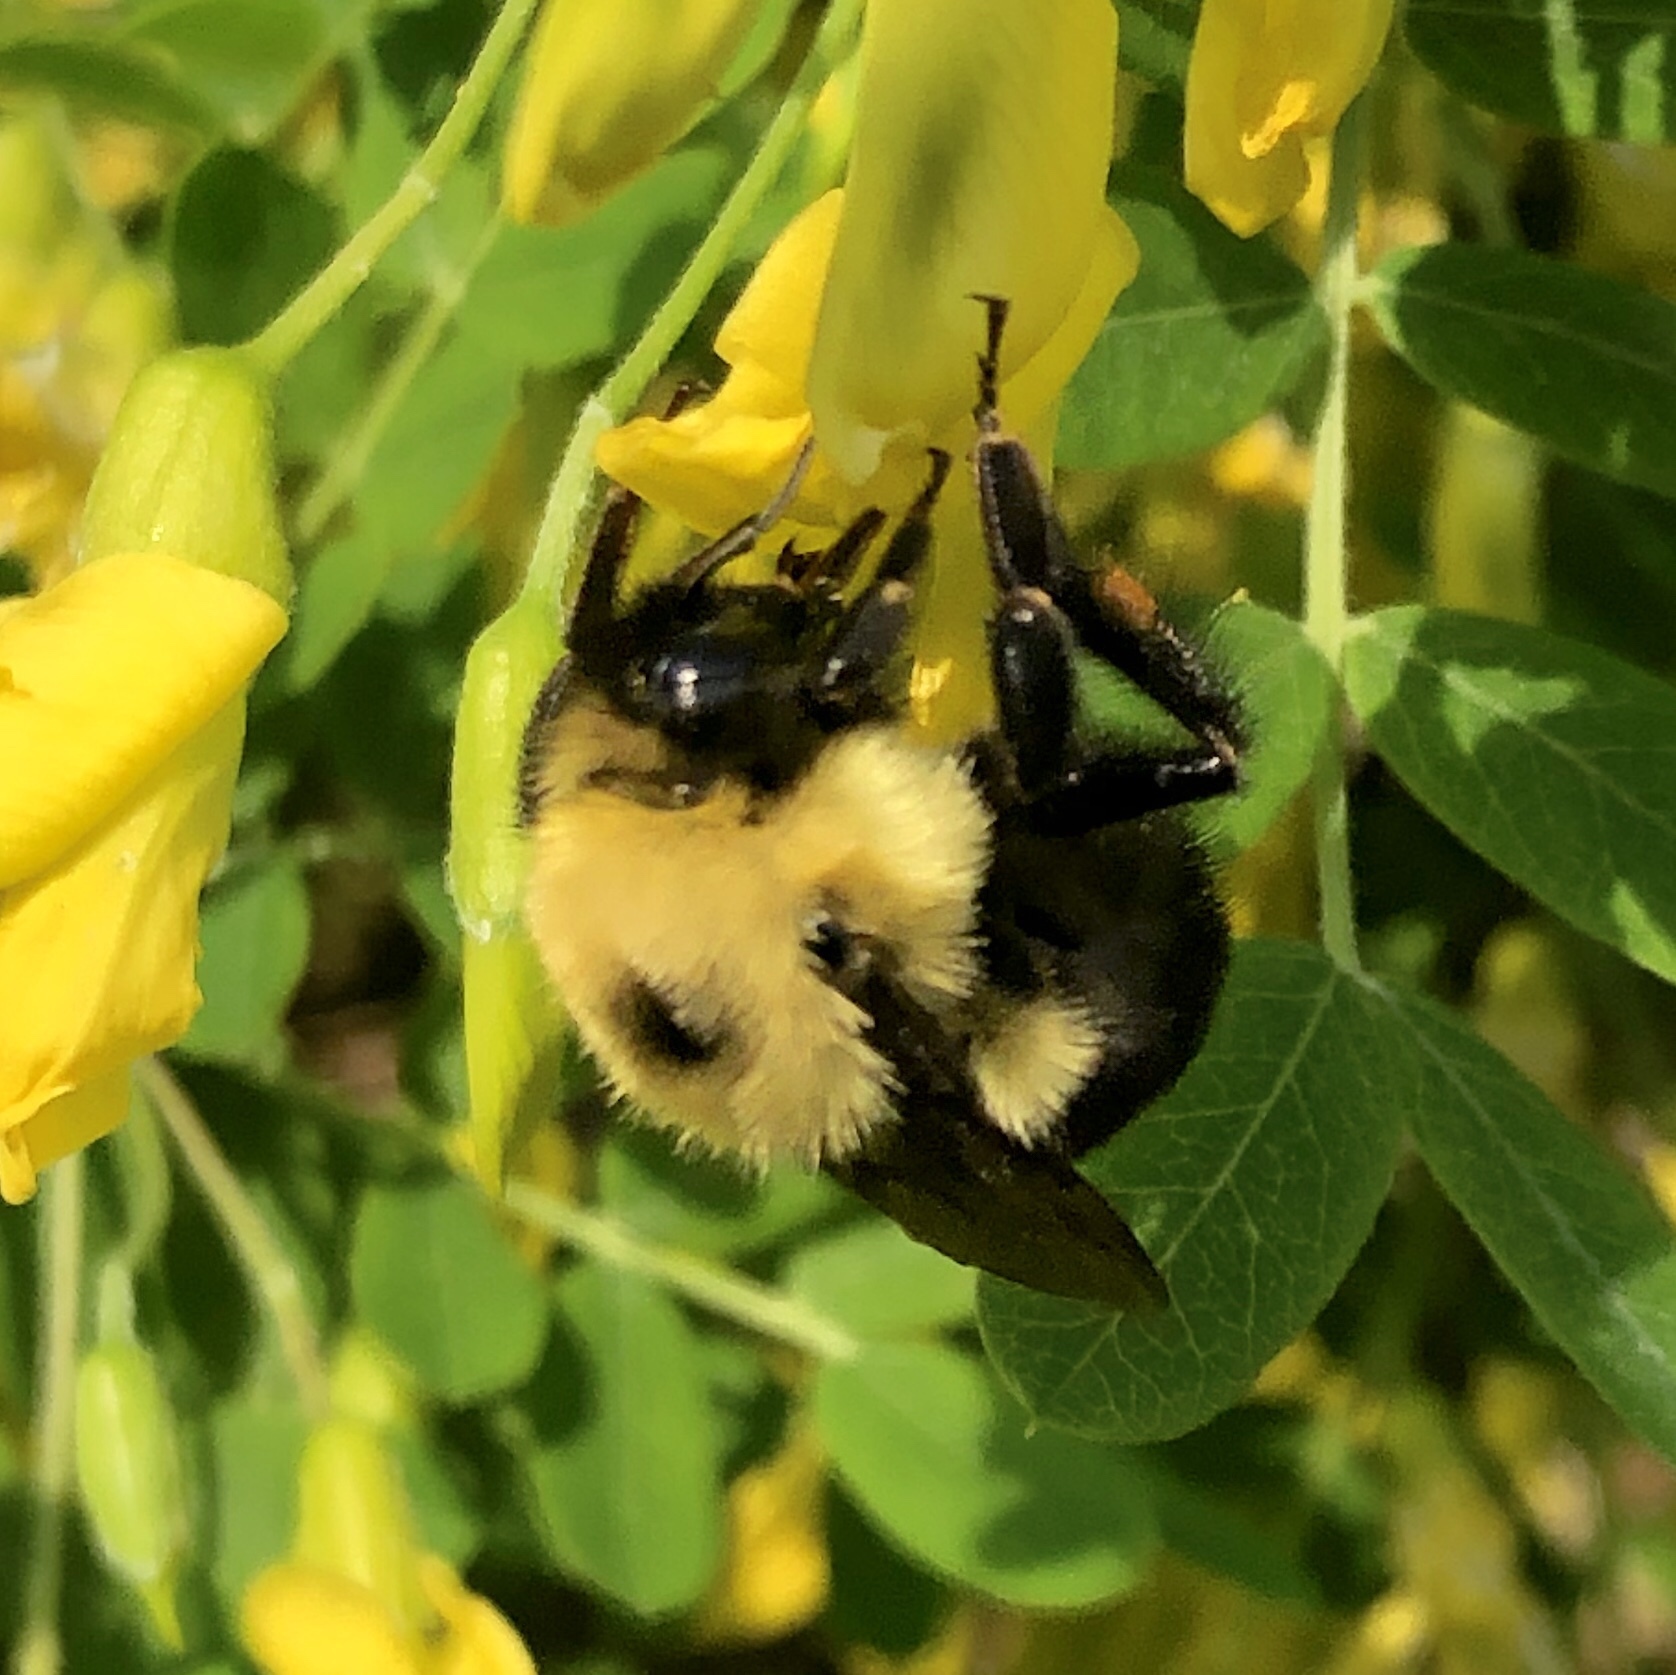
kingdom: Animalia
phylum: Arthropoda
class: Insecta
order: Hymenoptera
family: Apidae
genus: Bombus
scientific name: Bombus bimaculatus
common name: Two-spotted bumble bee
